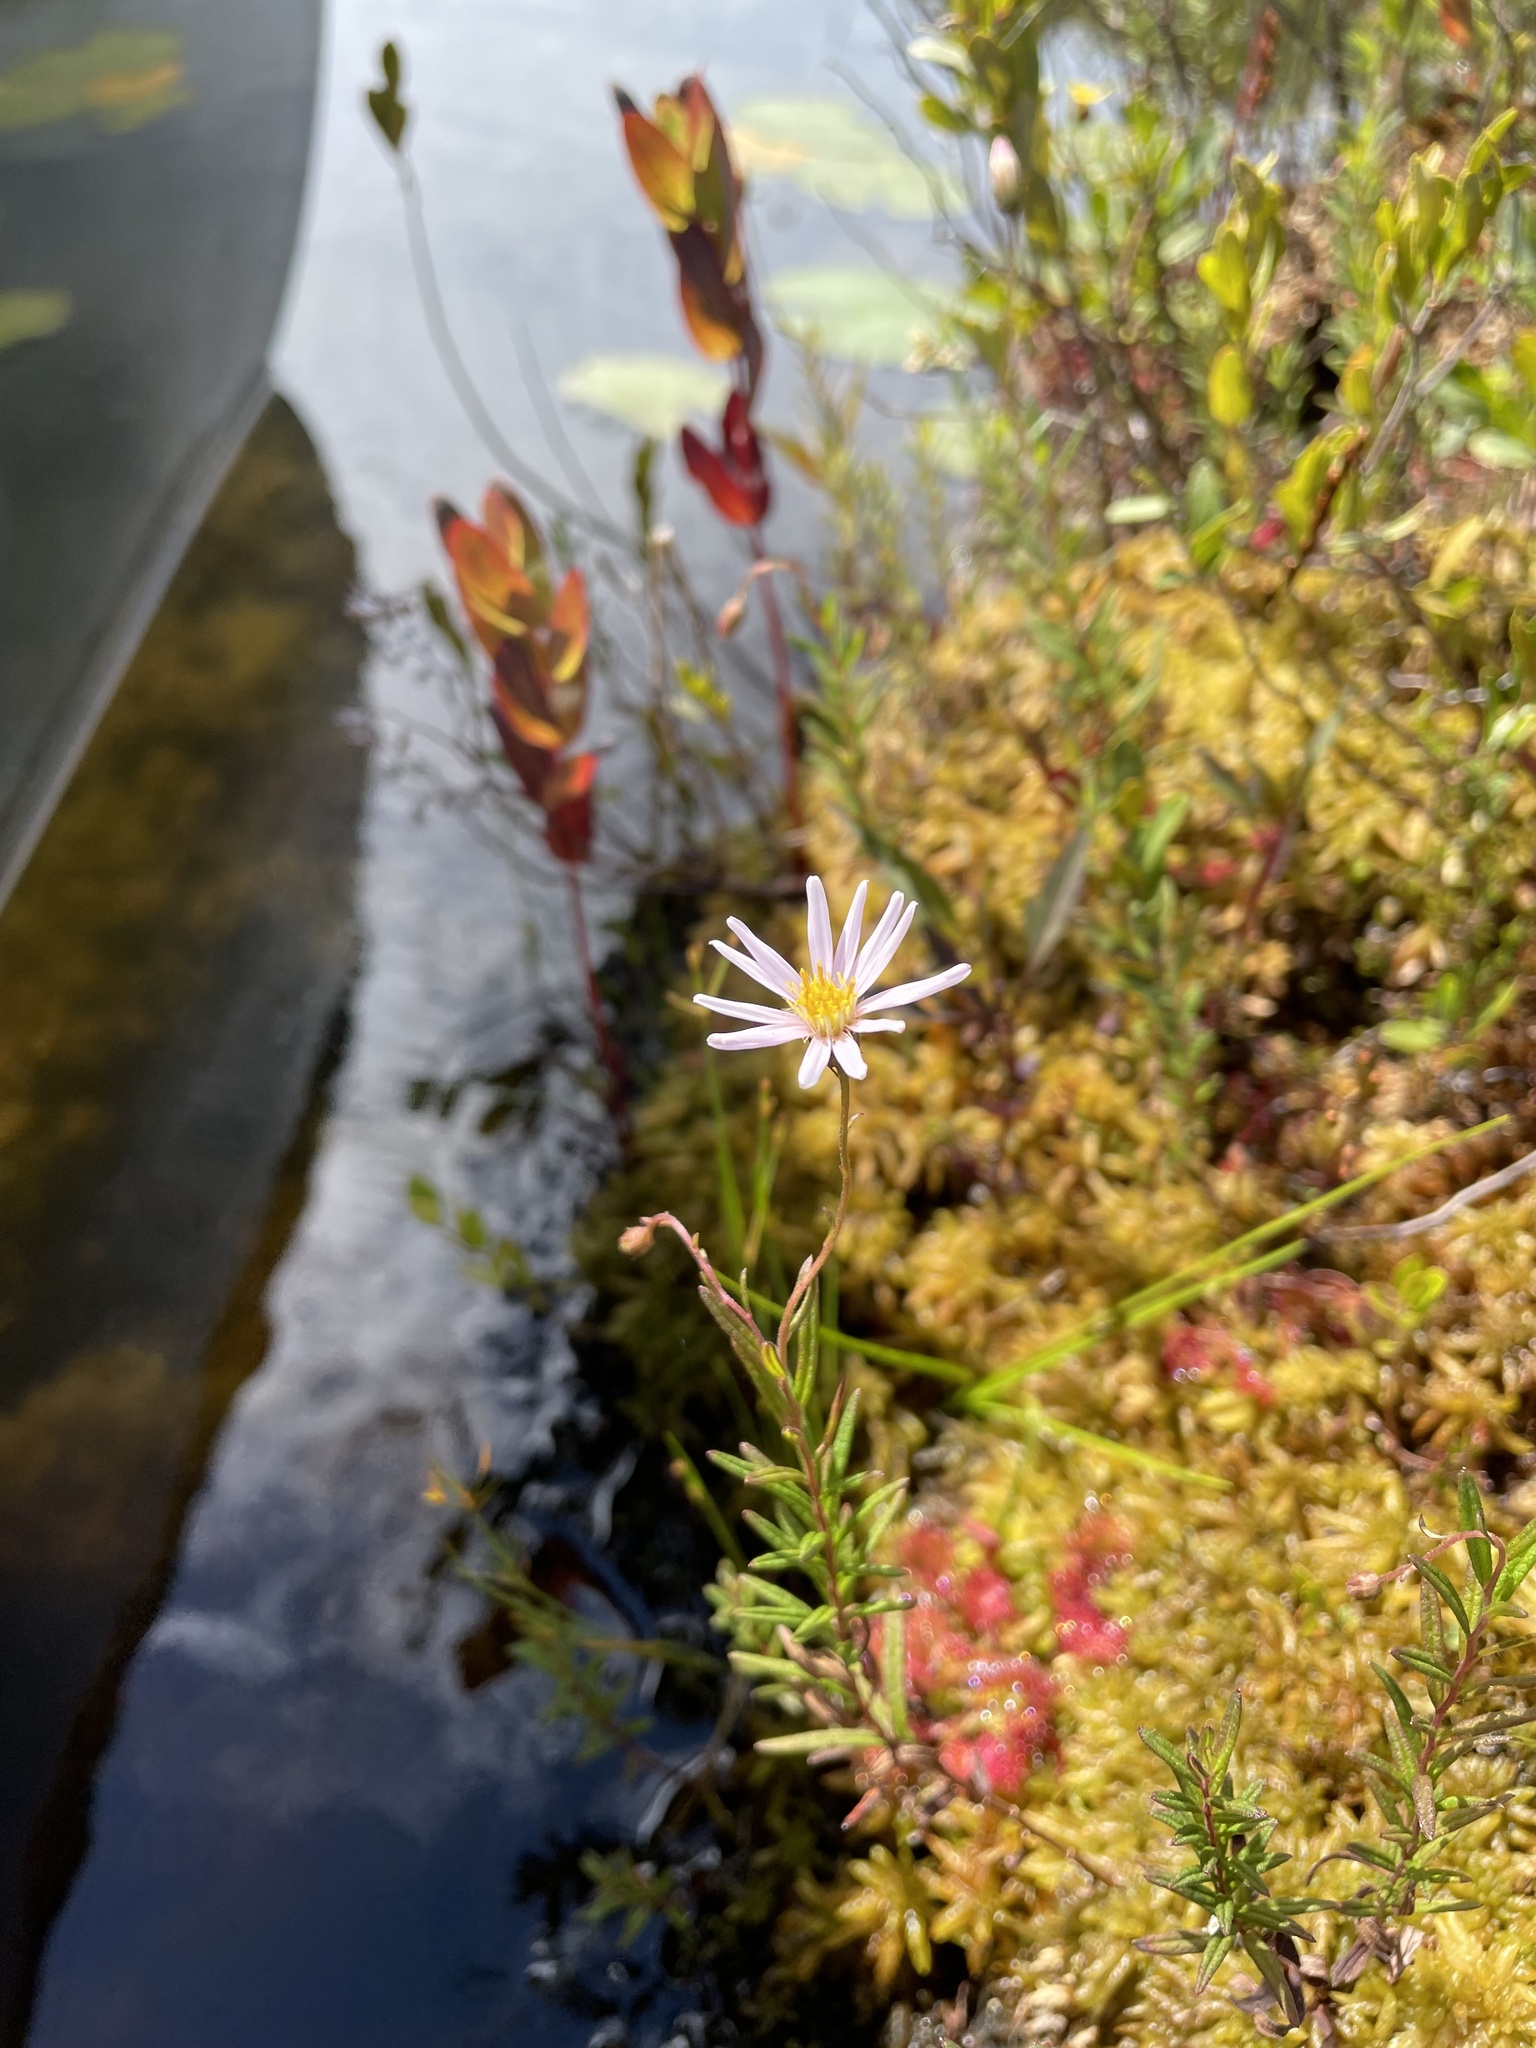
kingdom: Plantae
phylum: Tracheophyta
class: Magnoliopsida
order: Asterales
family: Asteraceae
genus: Oclemena
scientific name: Oclemena nemoralis
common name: Bog aster
